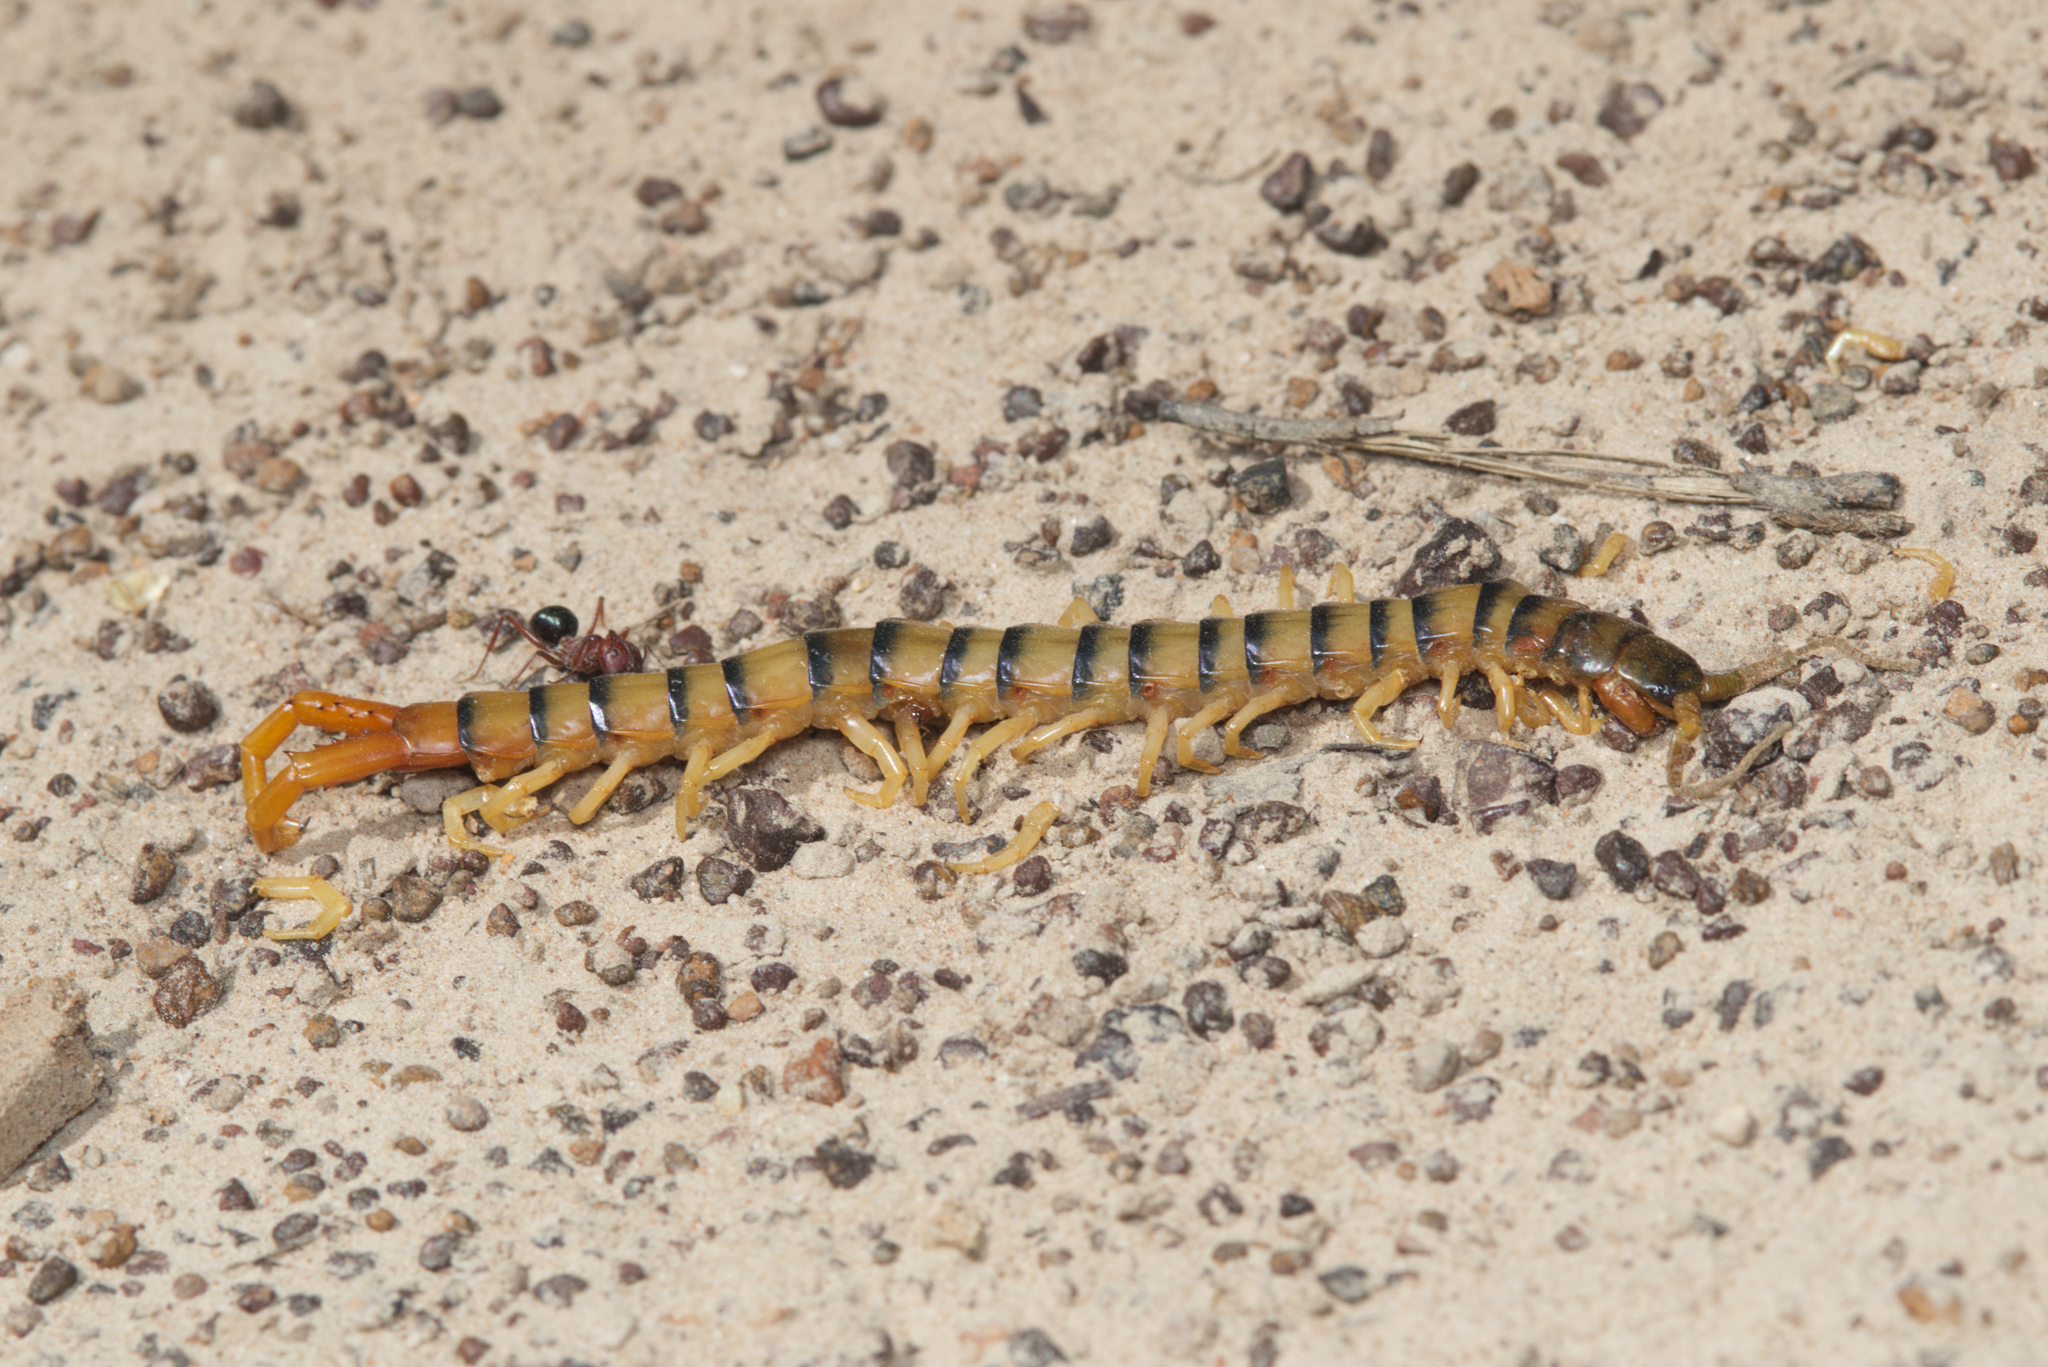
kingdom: Animalia
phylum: Arthropoda
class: Chilopoda
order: Scolopendromorpha
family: Scolopendridae
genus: Ethmostigmus
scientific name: Ethmostigmus rubripes
